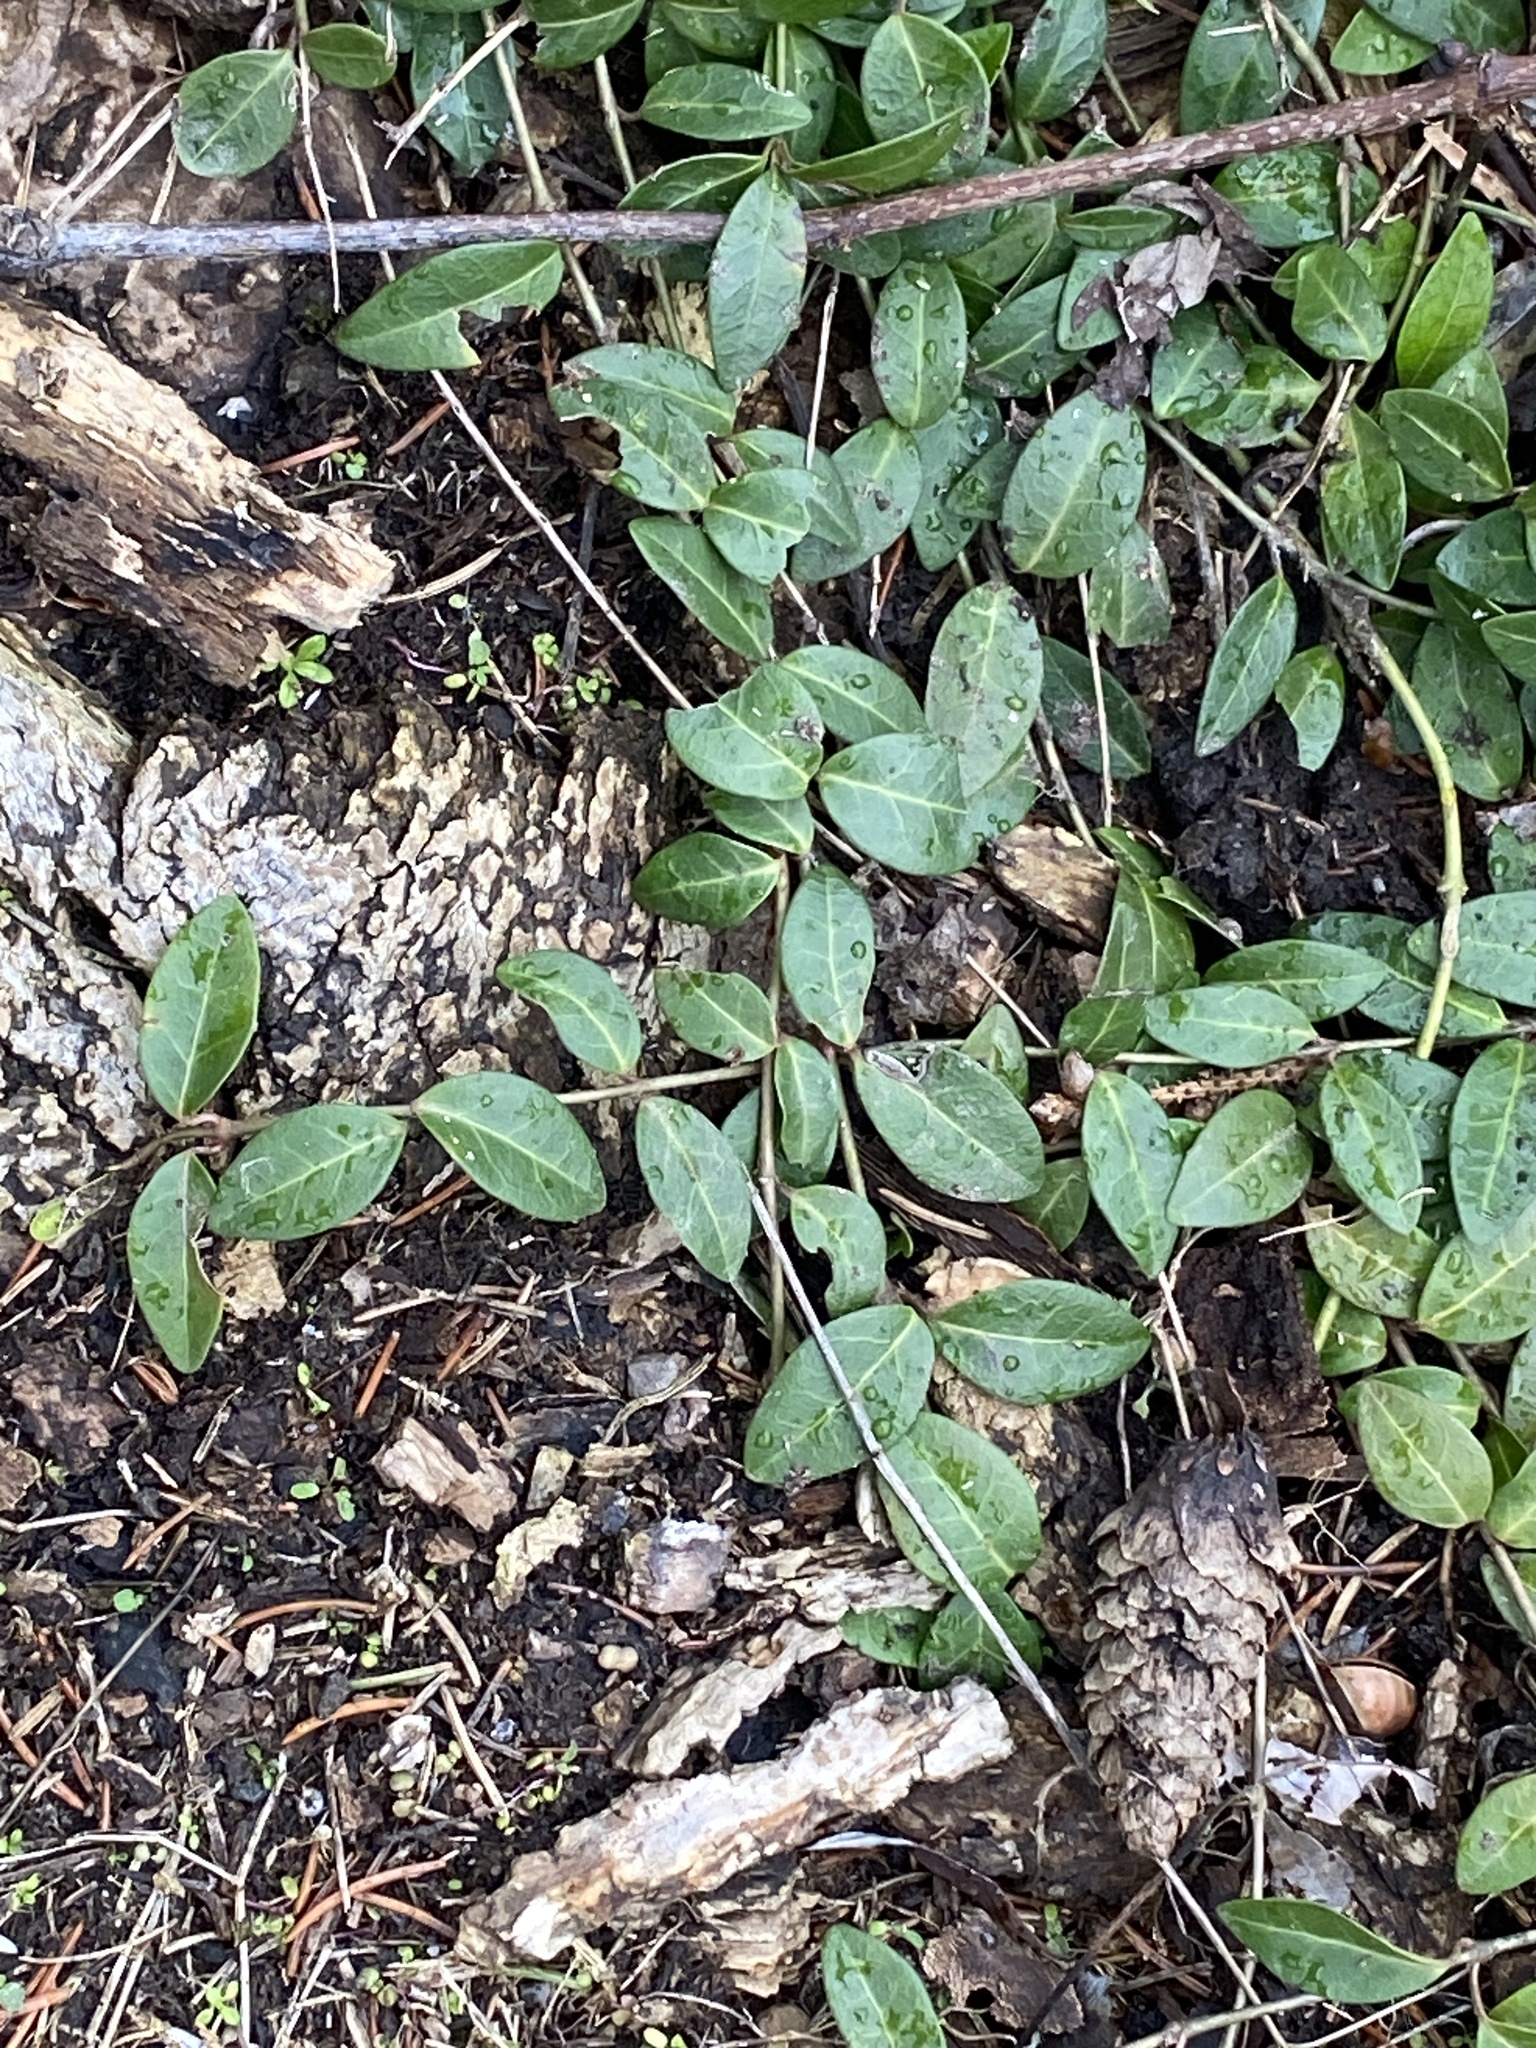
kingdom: Plantae
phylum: Tracheophyta
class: Magnoliopsida
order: Gentianales
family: Apocynaceae
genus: Vinca
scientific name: Vinca minor
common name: Lesser periwinkle
